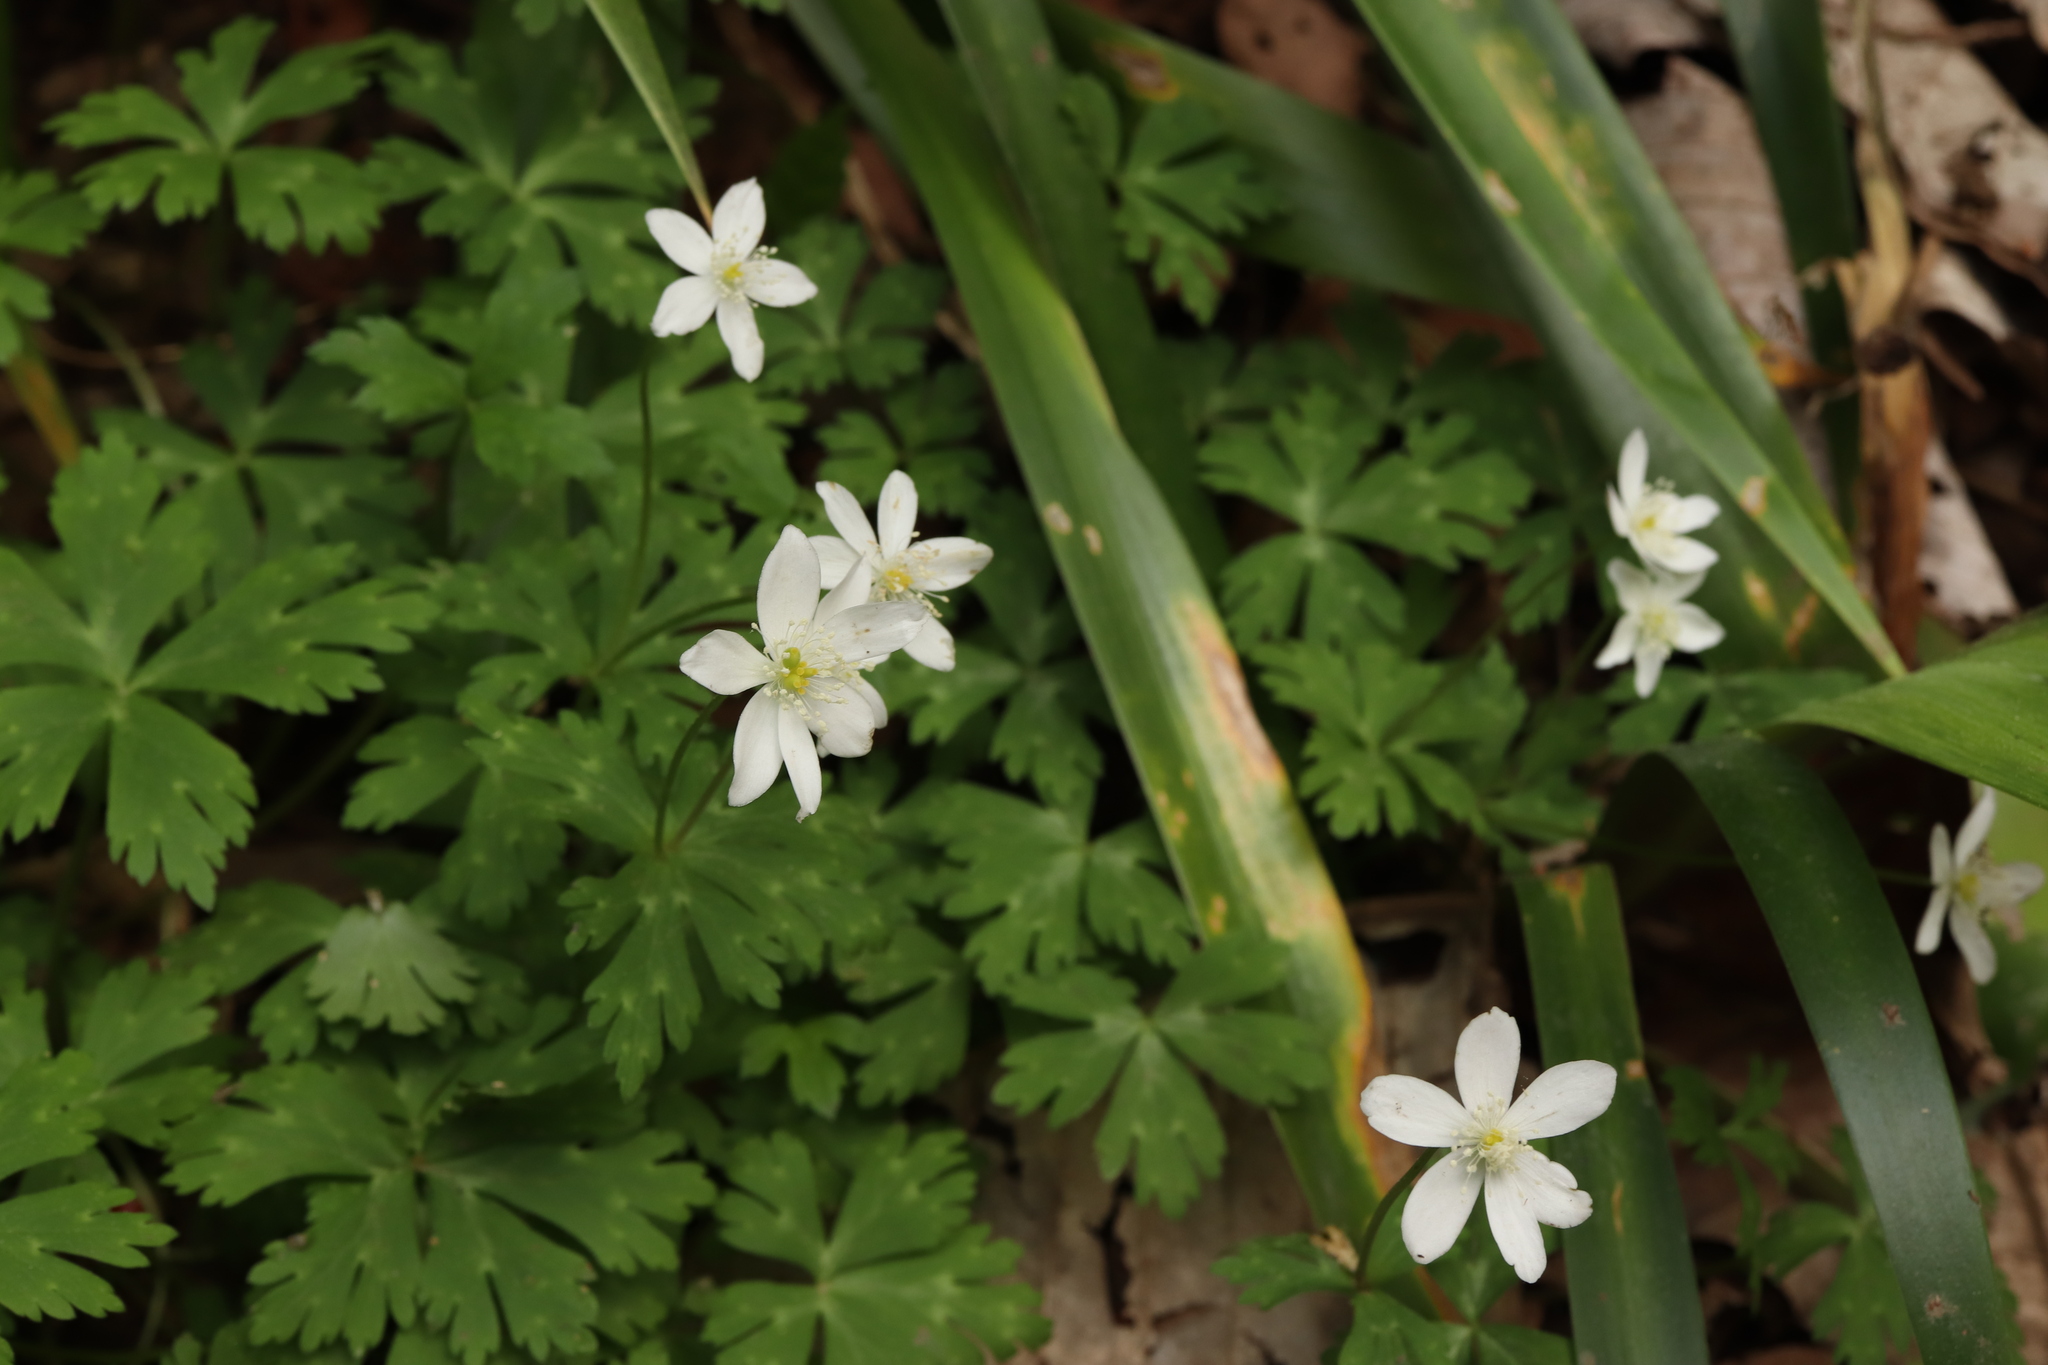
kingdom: Plantae
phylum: Tracheophyta
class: Magnoliopsida
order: Ranunculales
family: Ranunculaceae
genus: Anemonastrum
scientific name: Anemonastrum flaccidum
